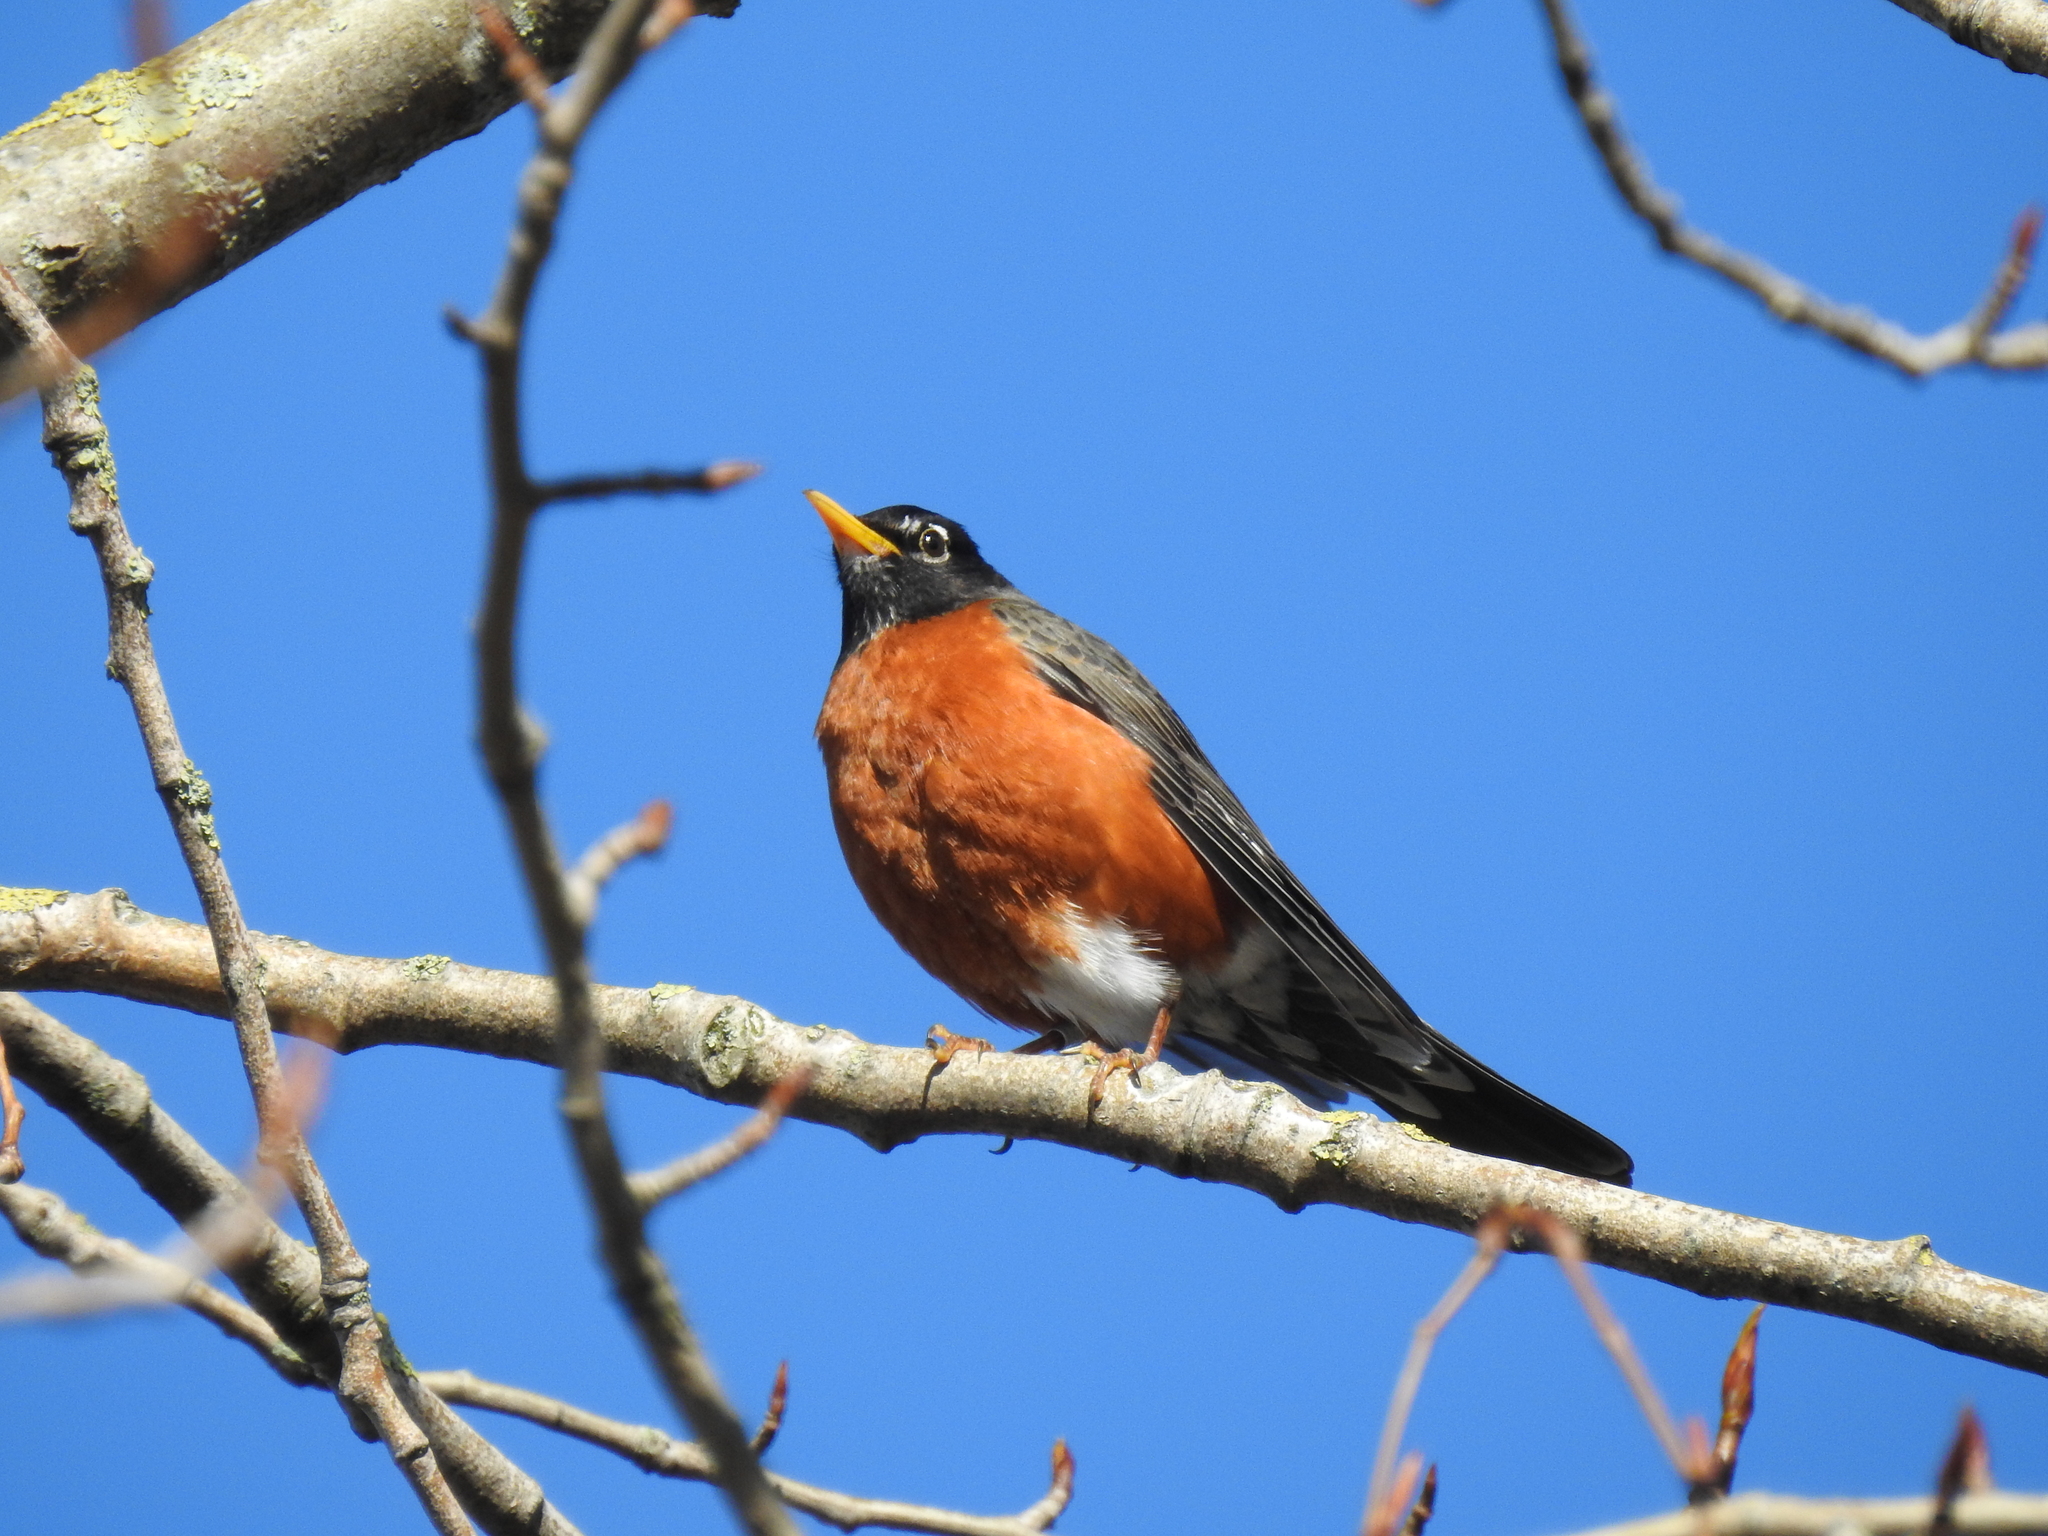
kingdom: Animalia
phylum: Chordata
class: Aves
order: Passeriformes
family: Turdidae
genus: Turdus
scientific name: Turdus migratorius
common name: American robin
